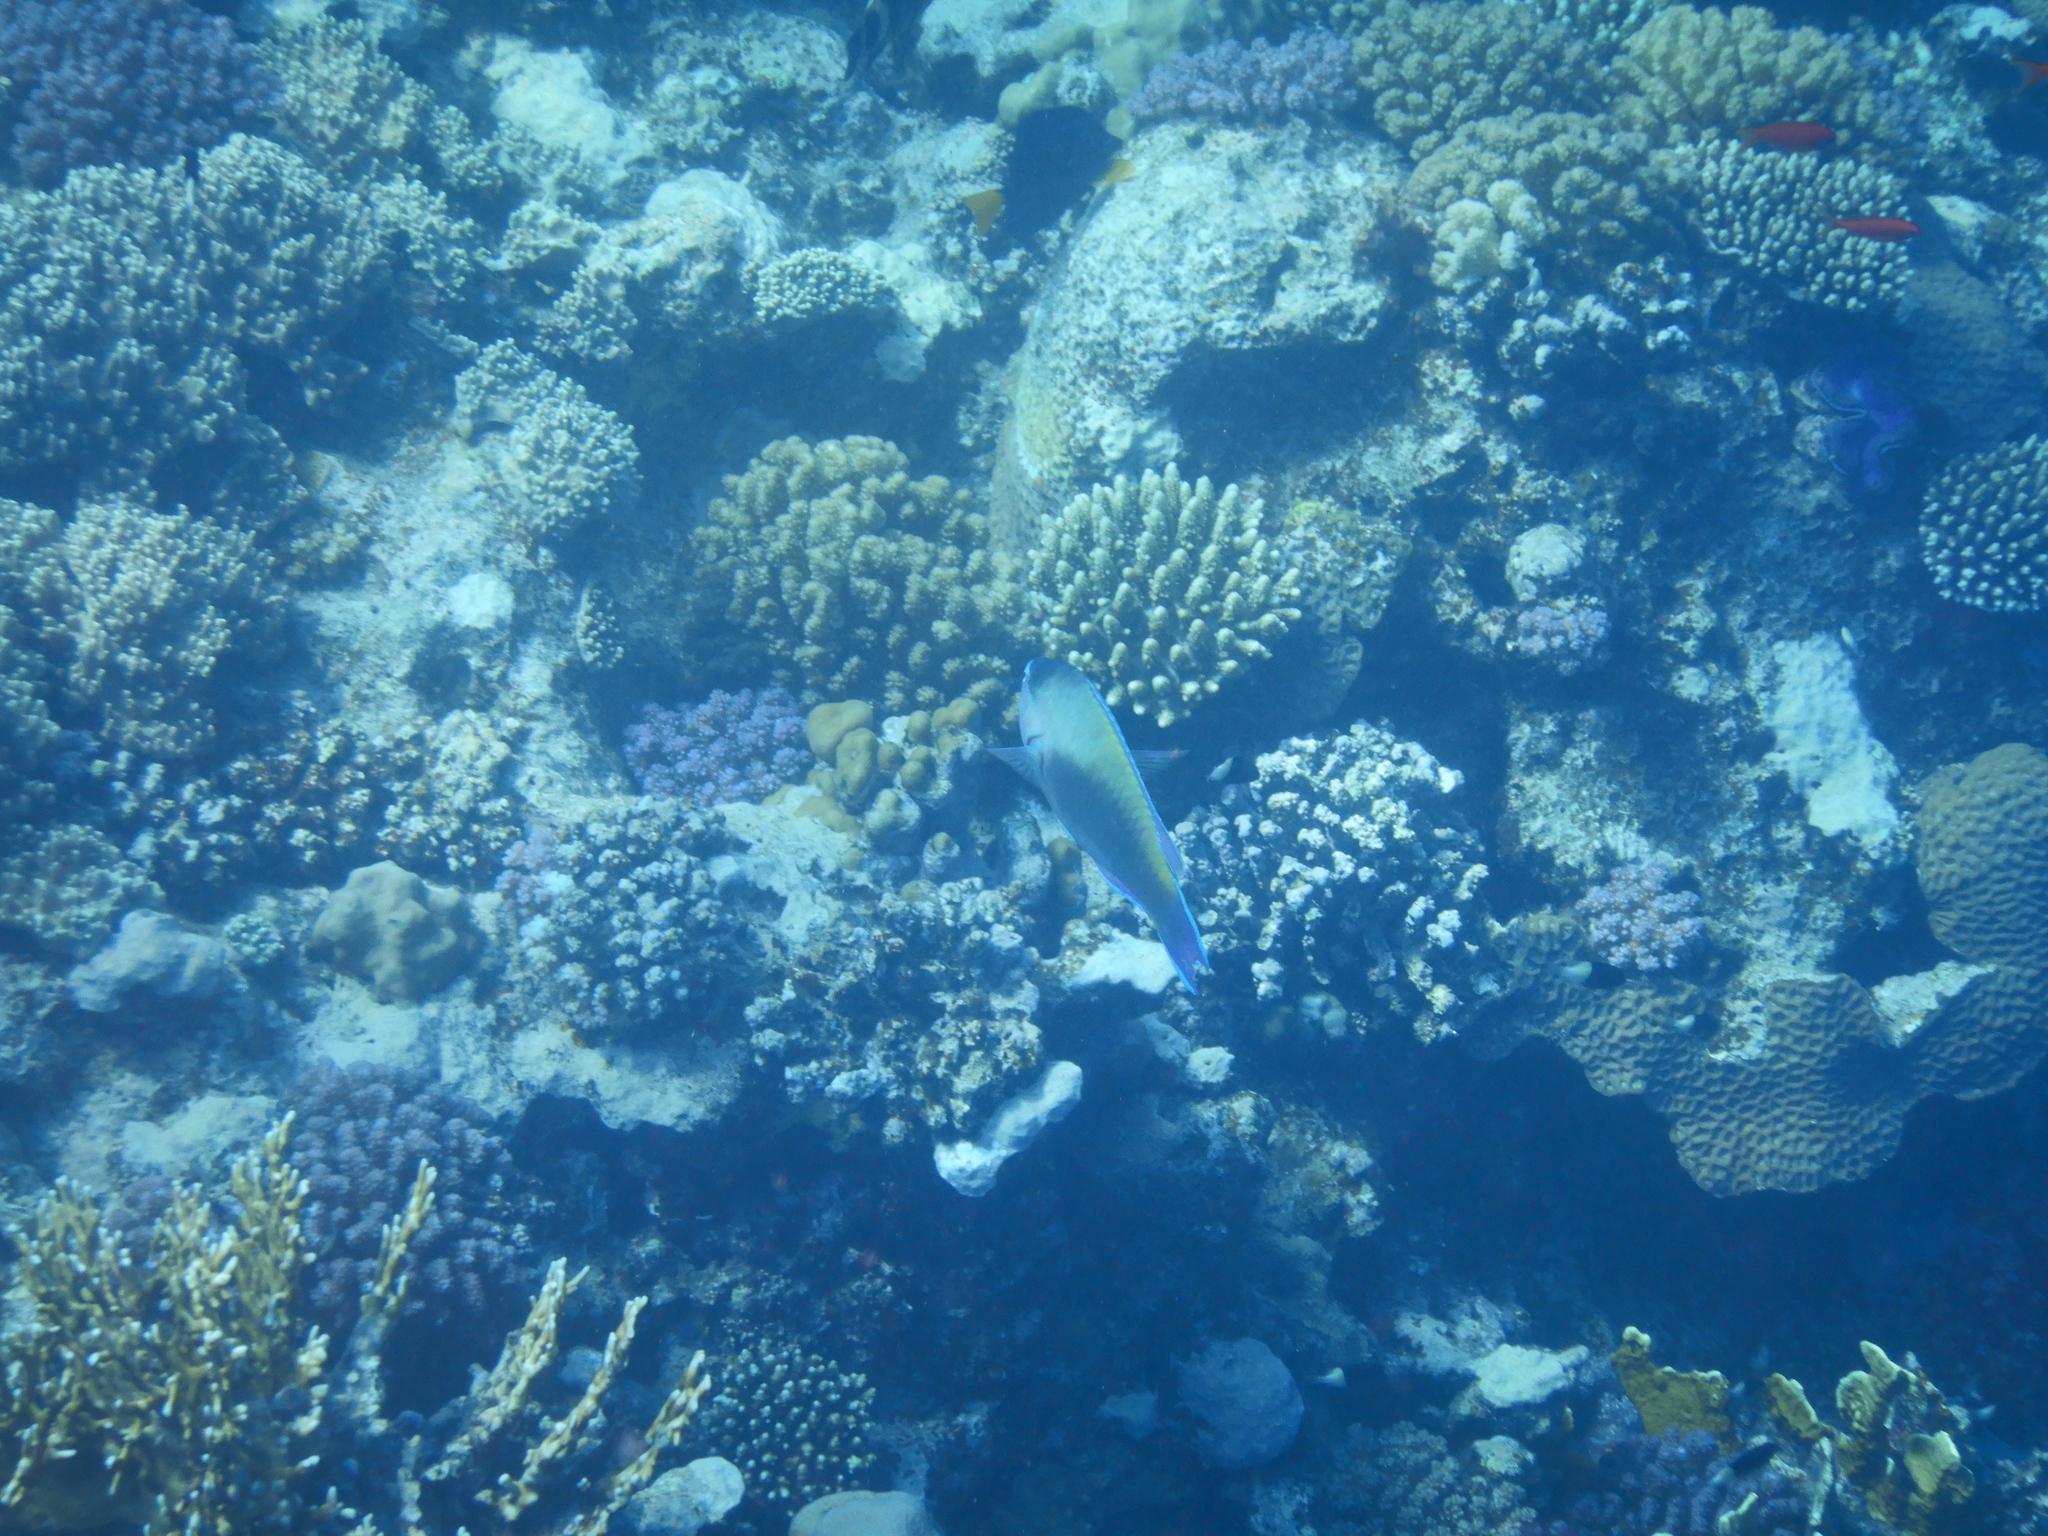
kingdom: Animalia
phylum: Chordata
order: Perciformes
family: Scaridae
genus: Scarus
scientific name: Scarus psittacus
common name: Palenose parrotfish
